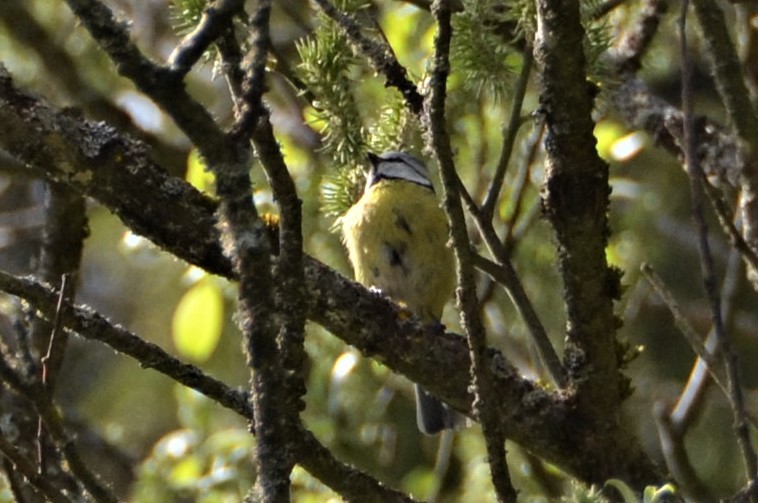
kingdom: Animalia
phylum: Chordata
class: Aves
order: Passeriformes
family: Paridae
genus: Cyanistes
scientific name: Cyanistes caeruleus
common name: Eurasian blue tit
